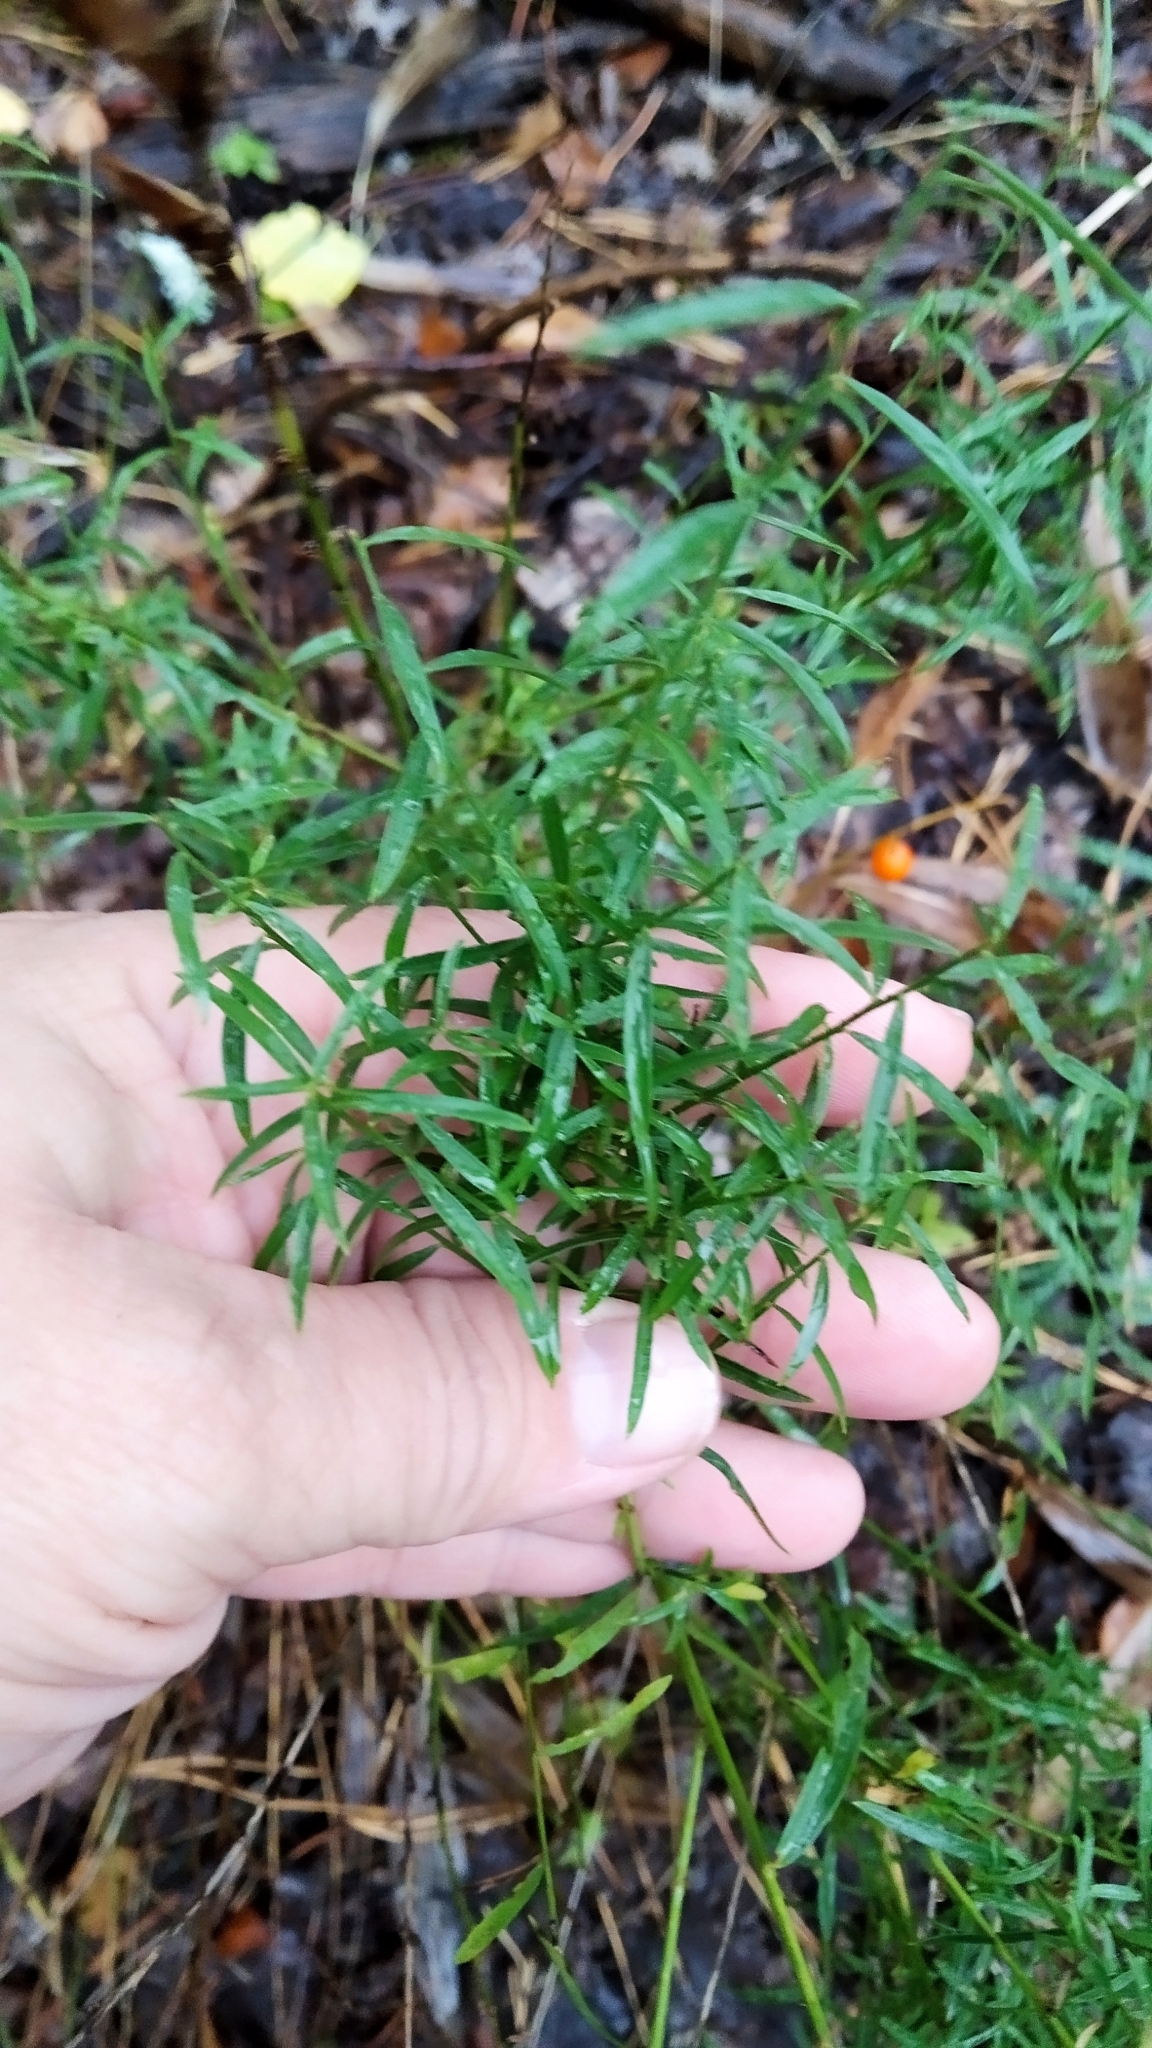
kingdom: Plantae
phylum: Tracheophyta
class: Magnoliopsida
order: Asterales
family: Asteraceae
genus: Centaurea
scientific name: Centaurea jacea
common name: Brown knapweed
